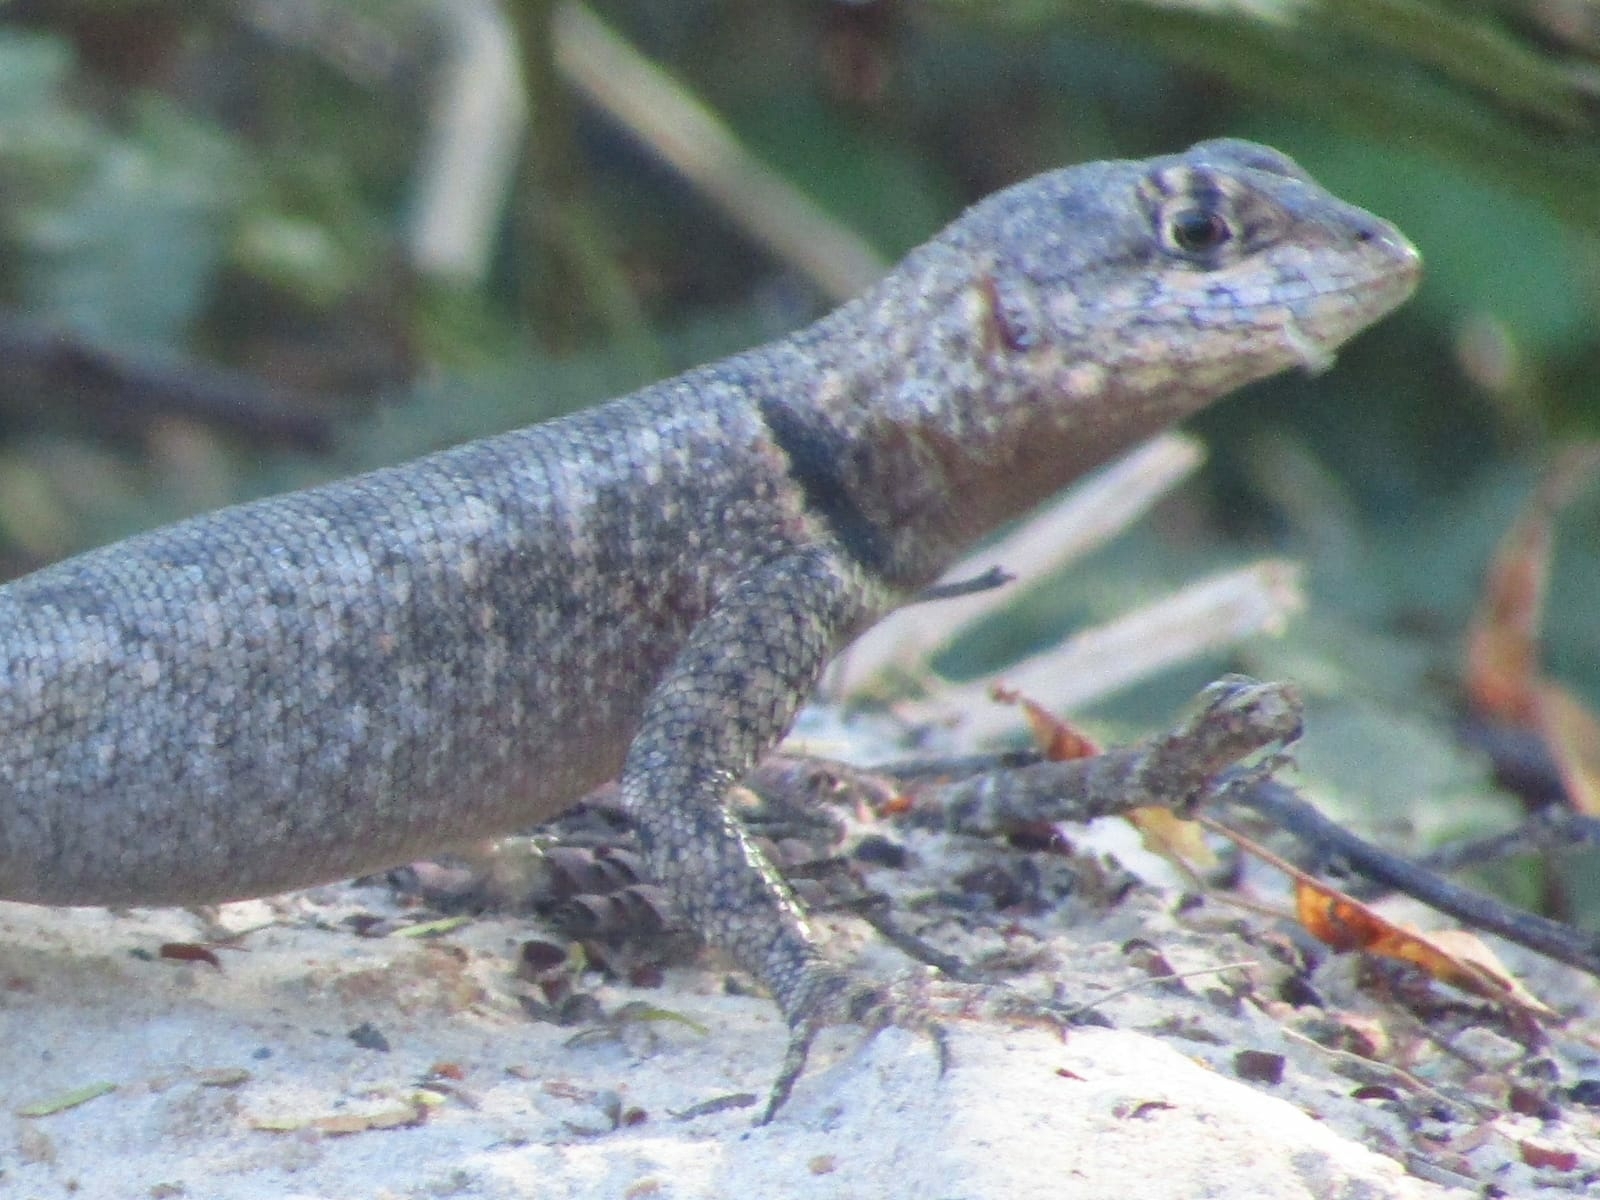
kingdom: Animalia
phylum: Chordata
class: Squamata
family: Tropiduridae
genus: Tropidurus
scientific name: Tropidurus hispidus
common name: Peters' lava lizard
